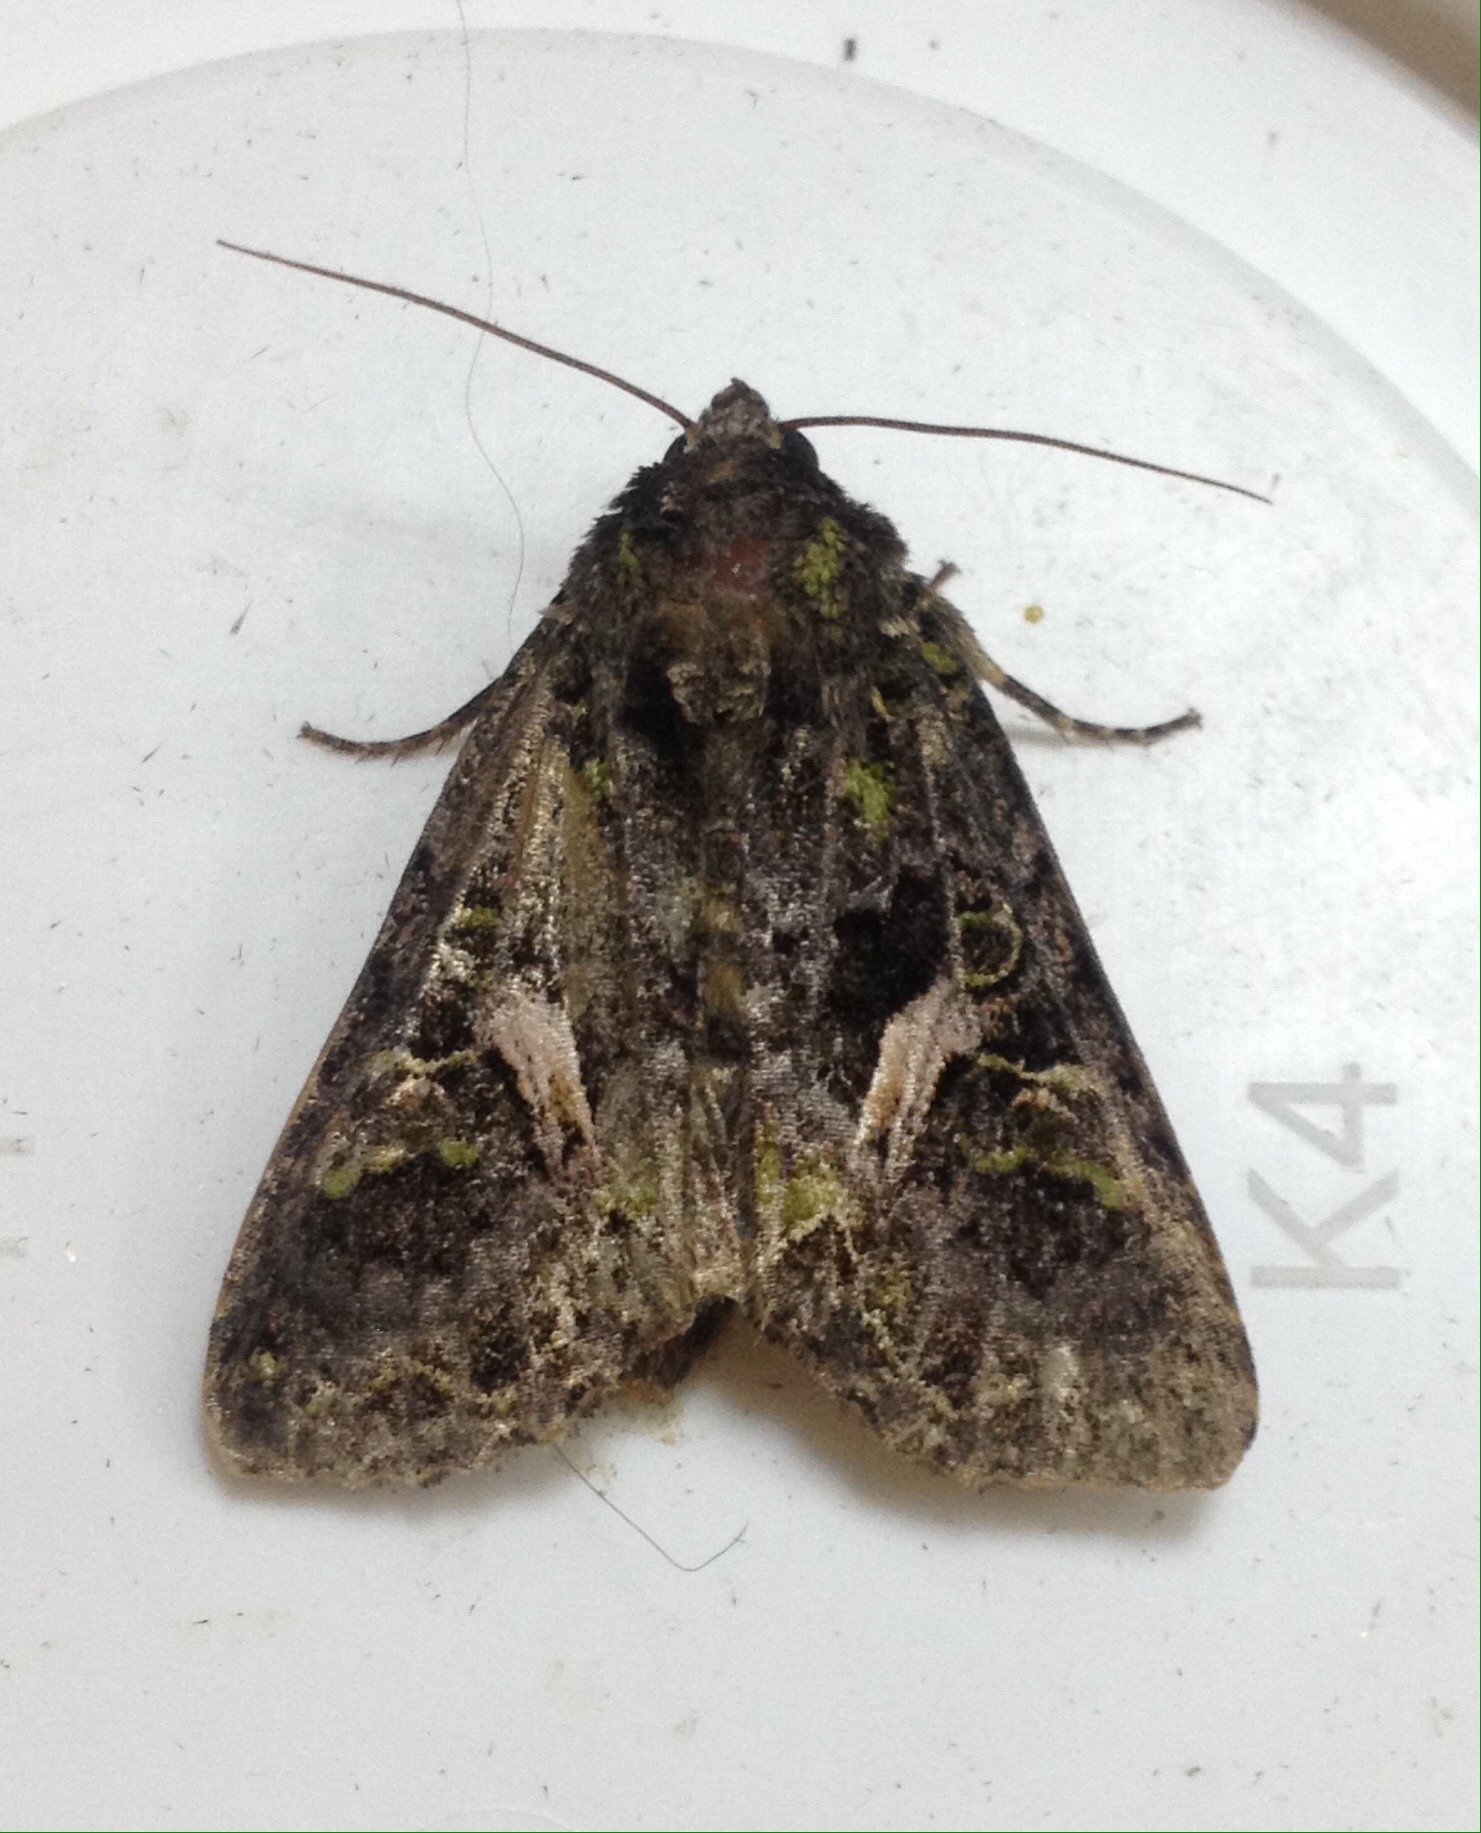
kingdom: Animalia
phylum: Arthropoda
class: Insecta
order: Lepidoptera
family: Noctuidae
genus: Trachea
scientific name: Trachea atriplicis
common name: Orache moth
